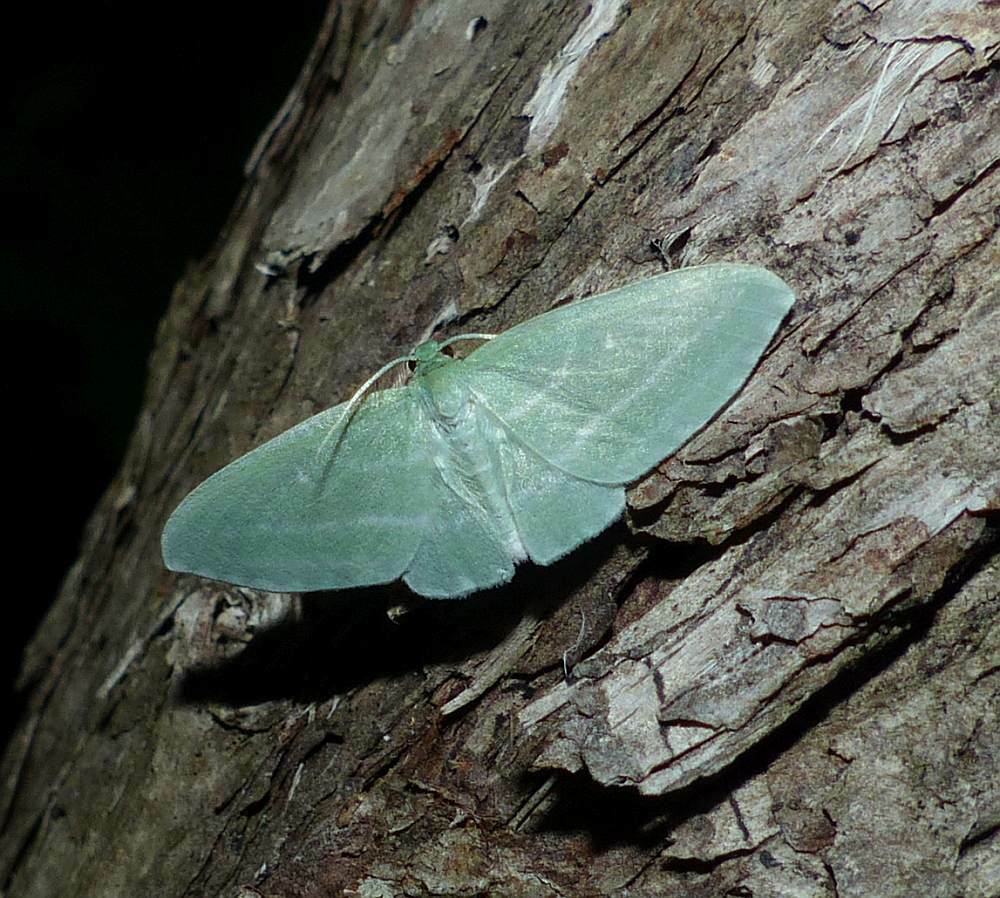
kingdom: Animalia
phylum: Arthropoda
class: Insecta
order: Lepidoptera
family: Geometridae
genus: Dyspteris
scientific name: Dyspteris abortivaria
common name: Bad-wing
